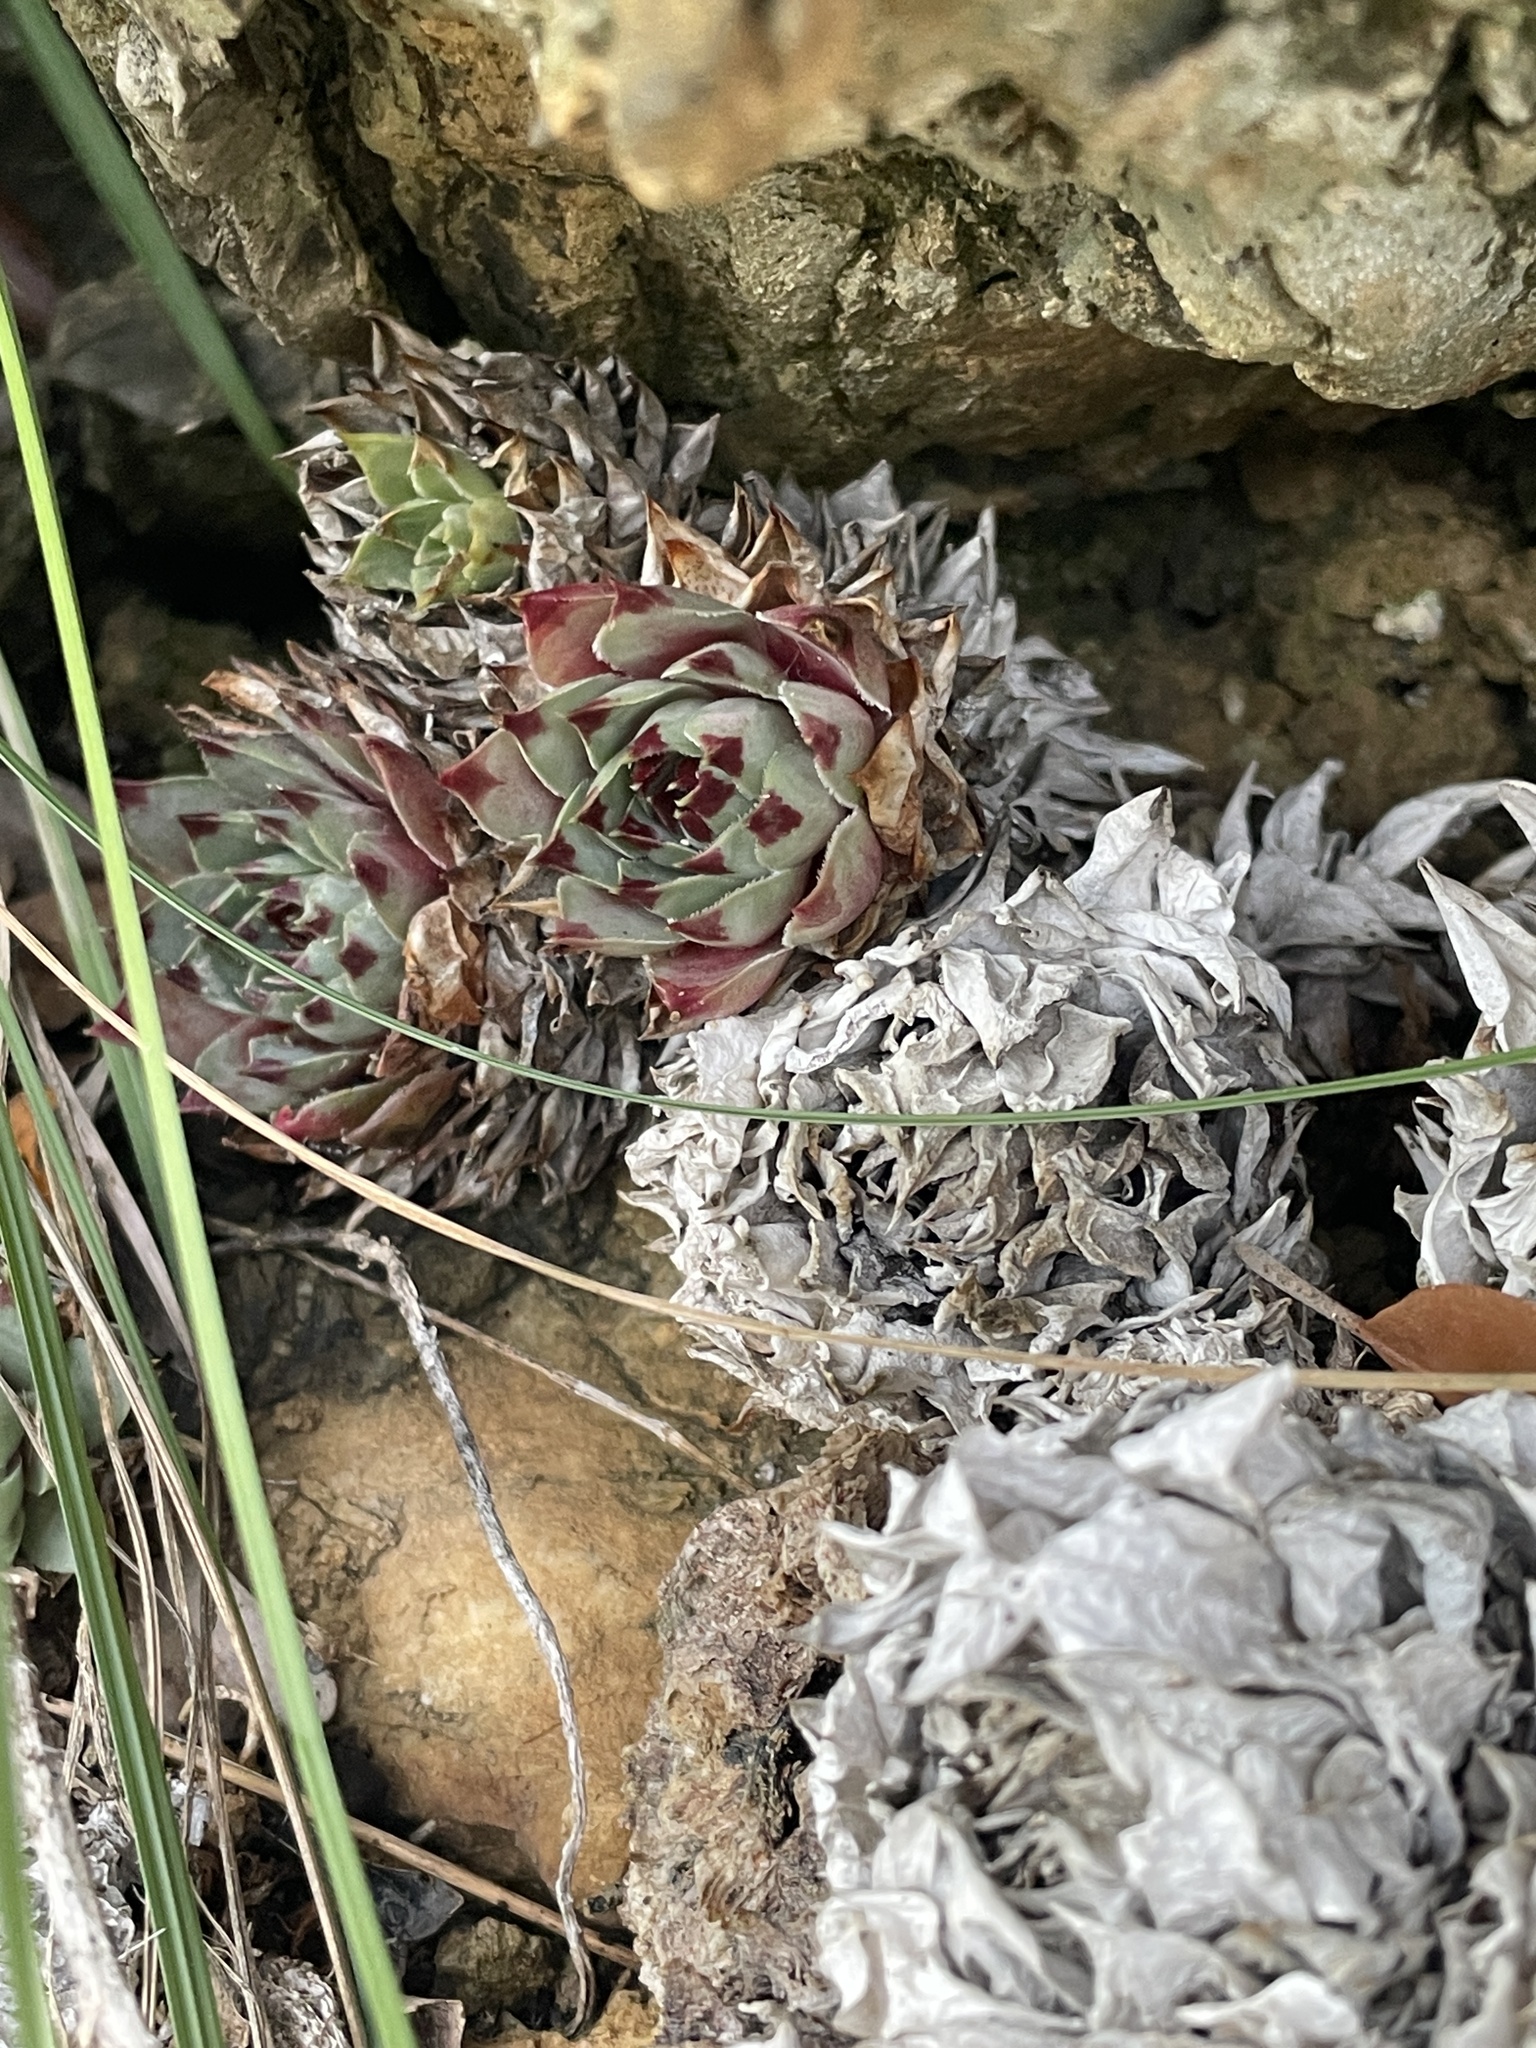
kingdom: Plantae
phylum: Tracheophyta
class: Magnoliopsida
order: Saxifragales
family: Crassulaceae
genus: Sempervivum
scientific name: Sempervivum calcareum
